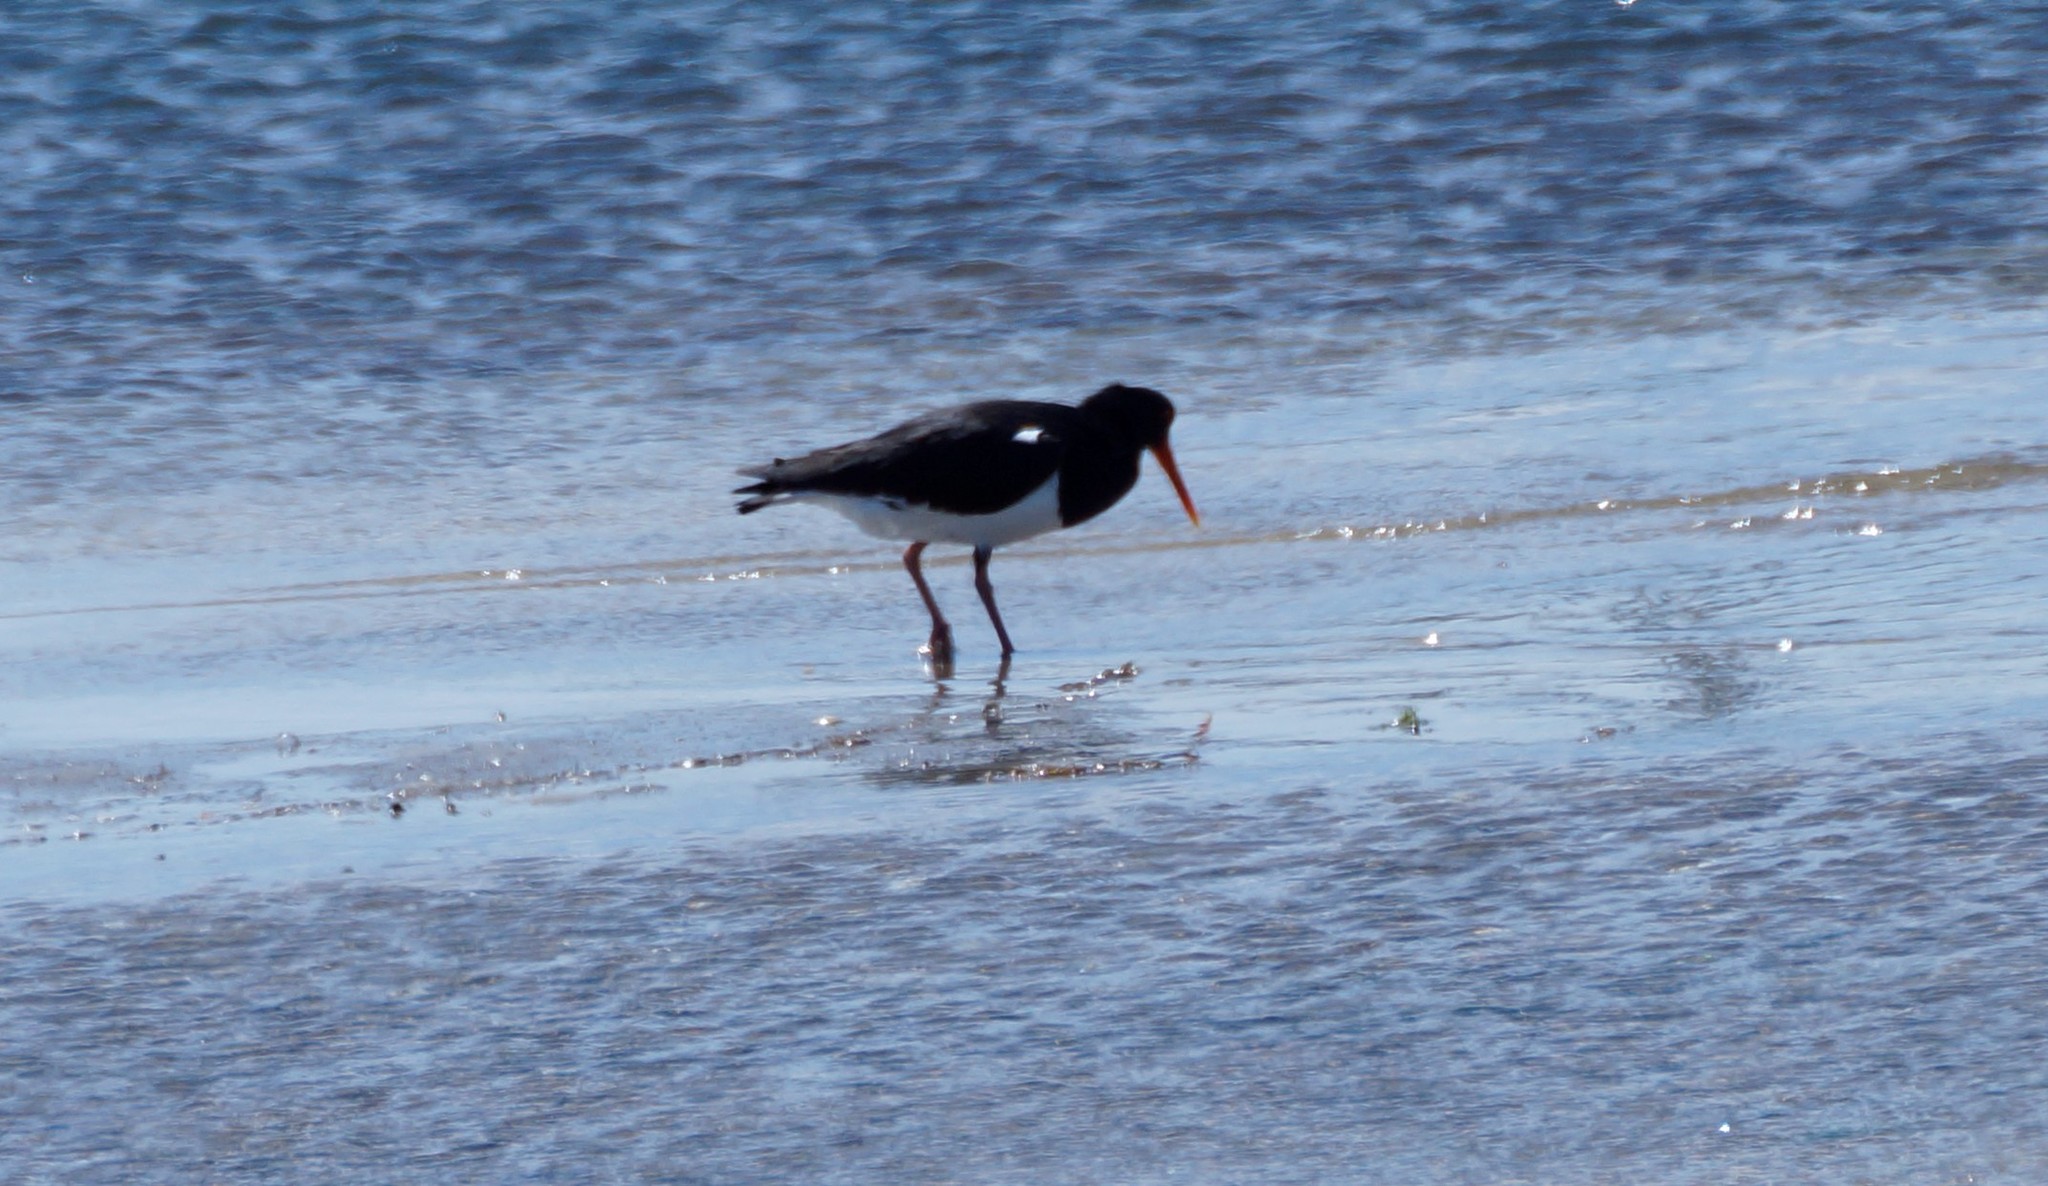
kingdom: Animalia
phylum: Chordata
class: Aves
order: Charadriiformes
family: Haematopodidae
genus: Haematopus
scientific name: Haematopus longirostris
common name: Pied oystercatcher
